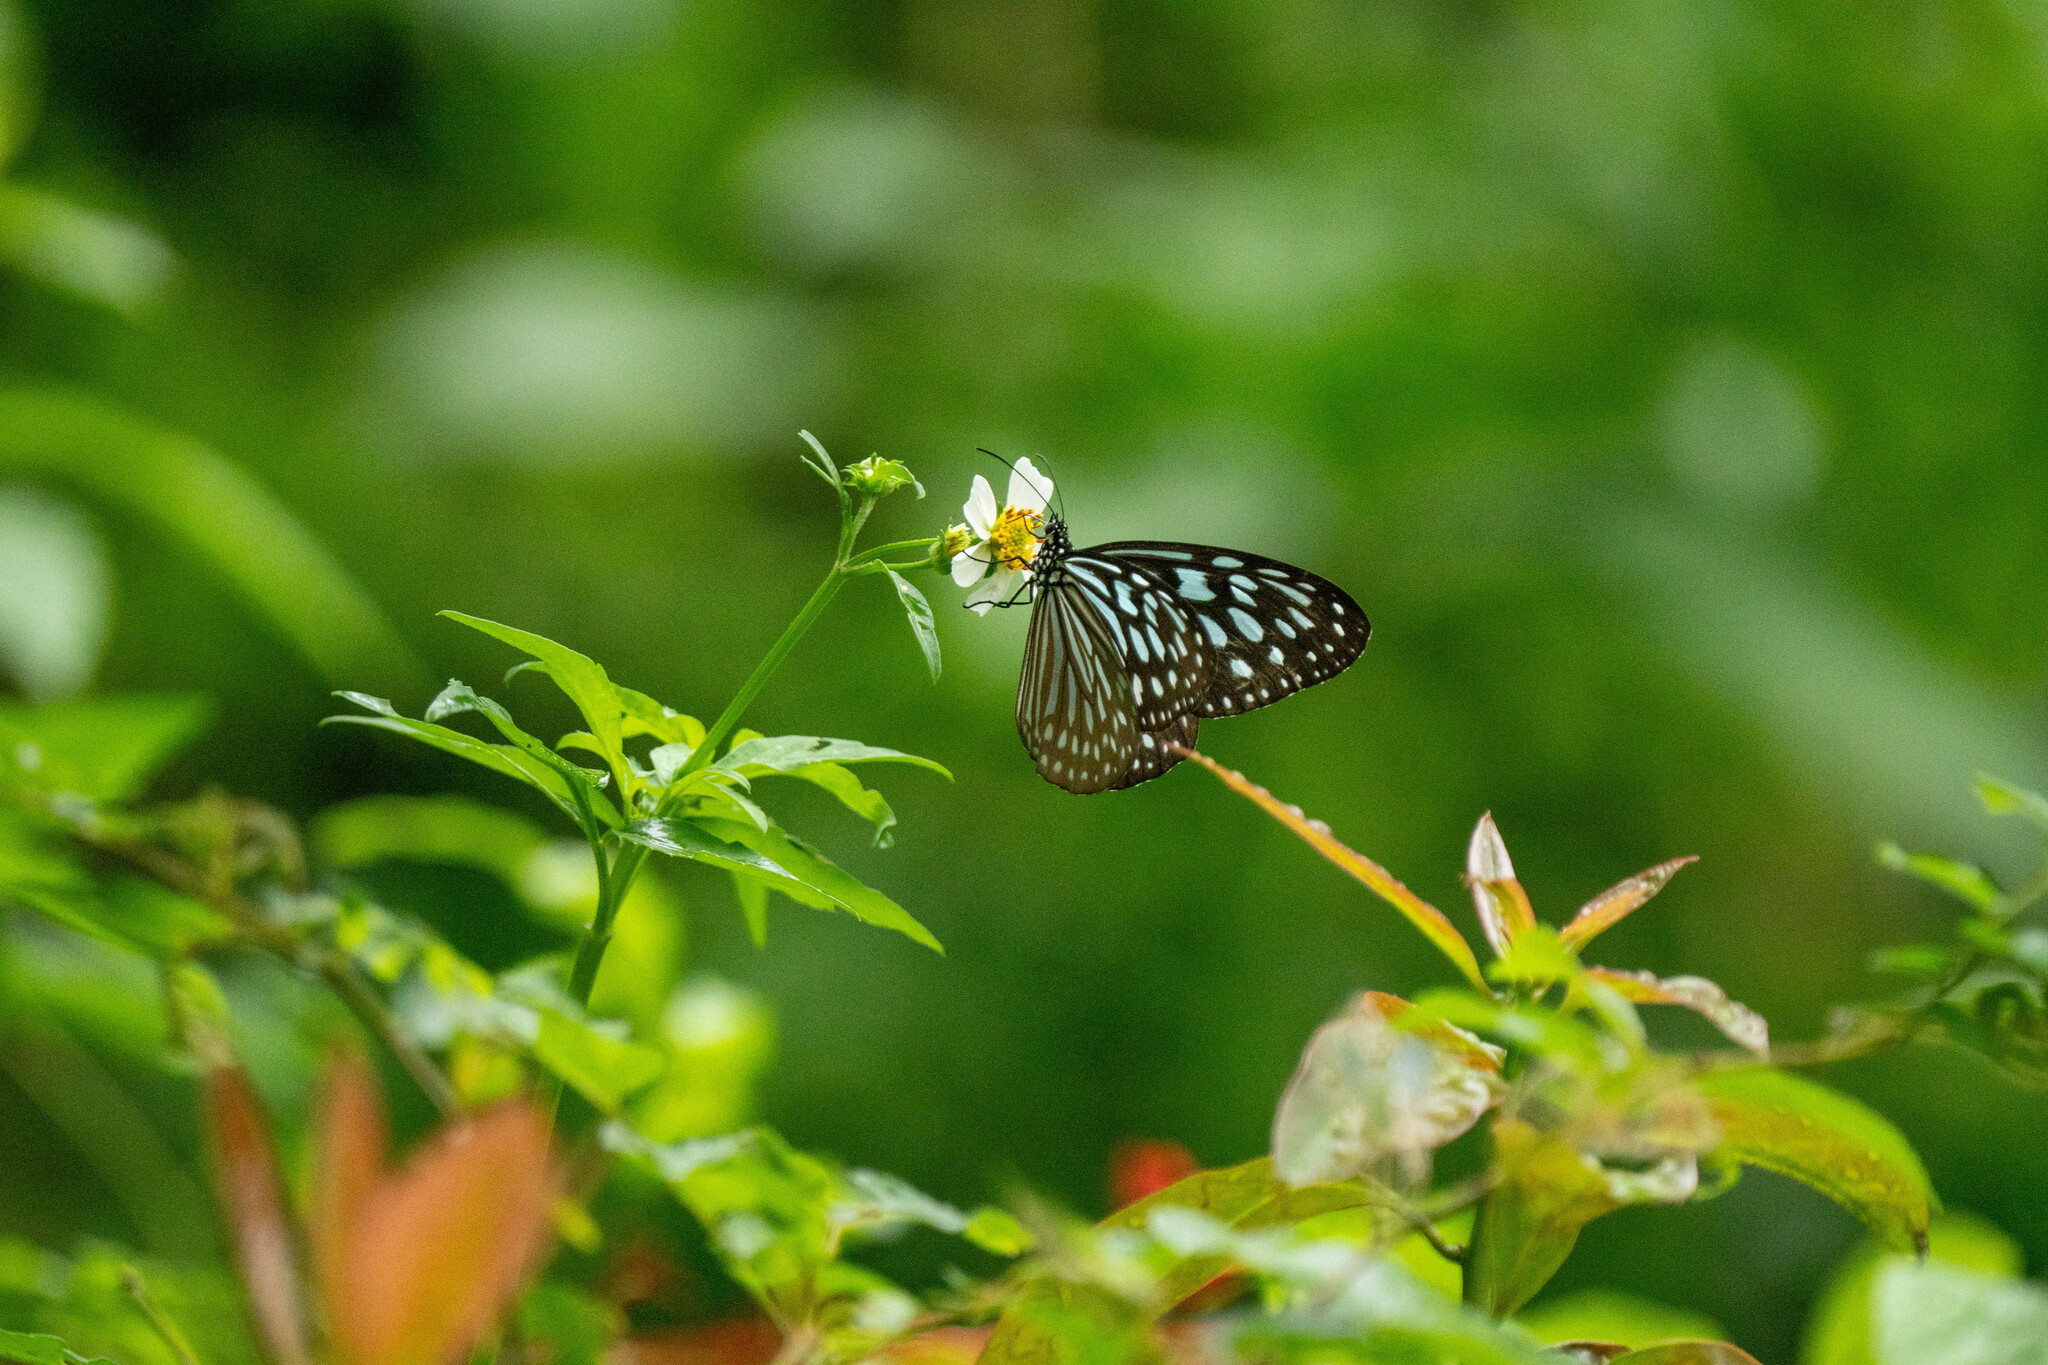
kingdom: Animalia
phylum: Arthropoda
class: Insecta
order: Lepidoptera
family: Nymphalidae
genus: Ideopsis
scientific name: Ideopsis similis
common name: Ceylon blue glassy tiger
